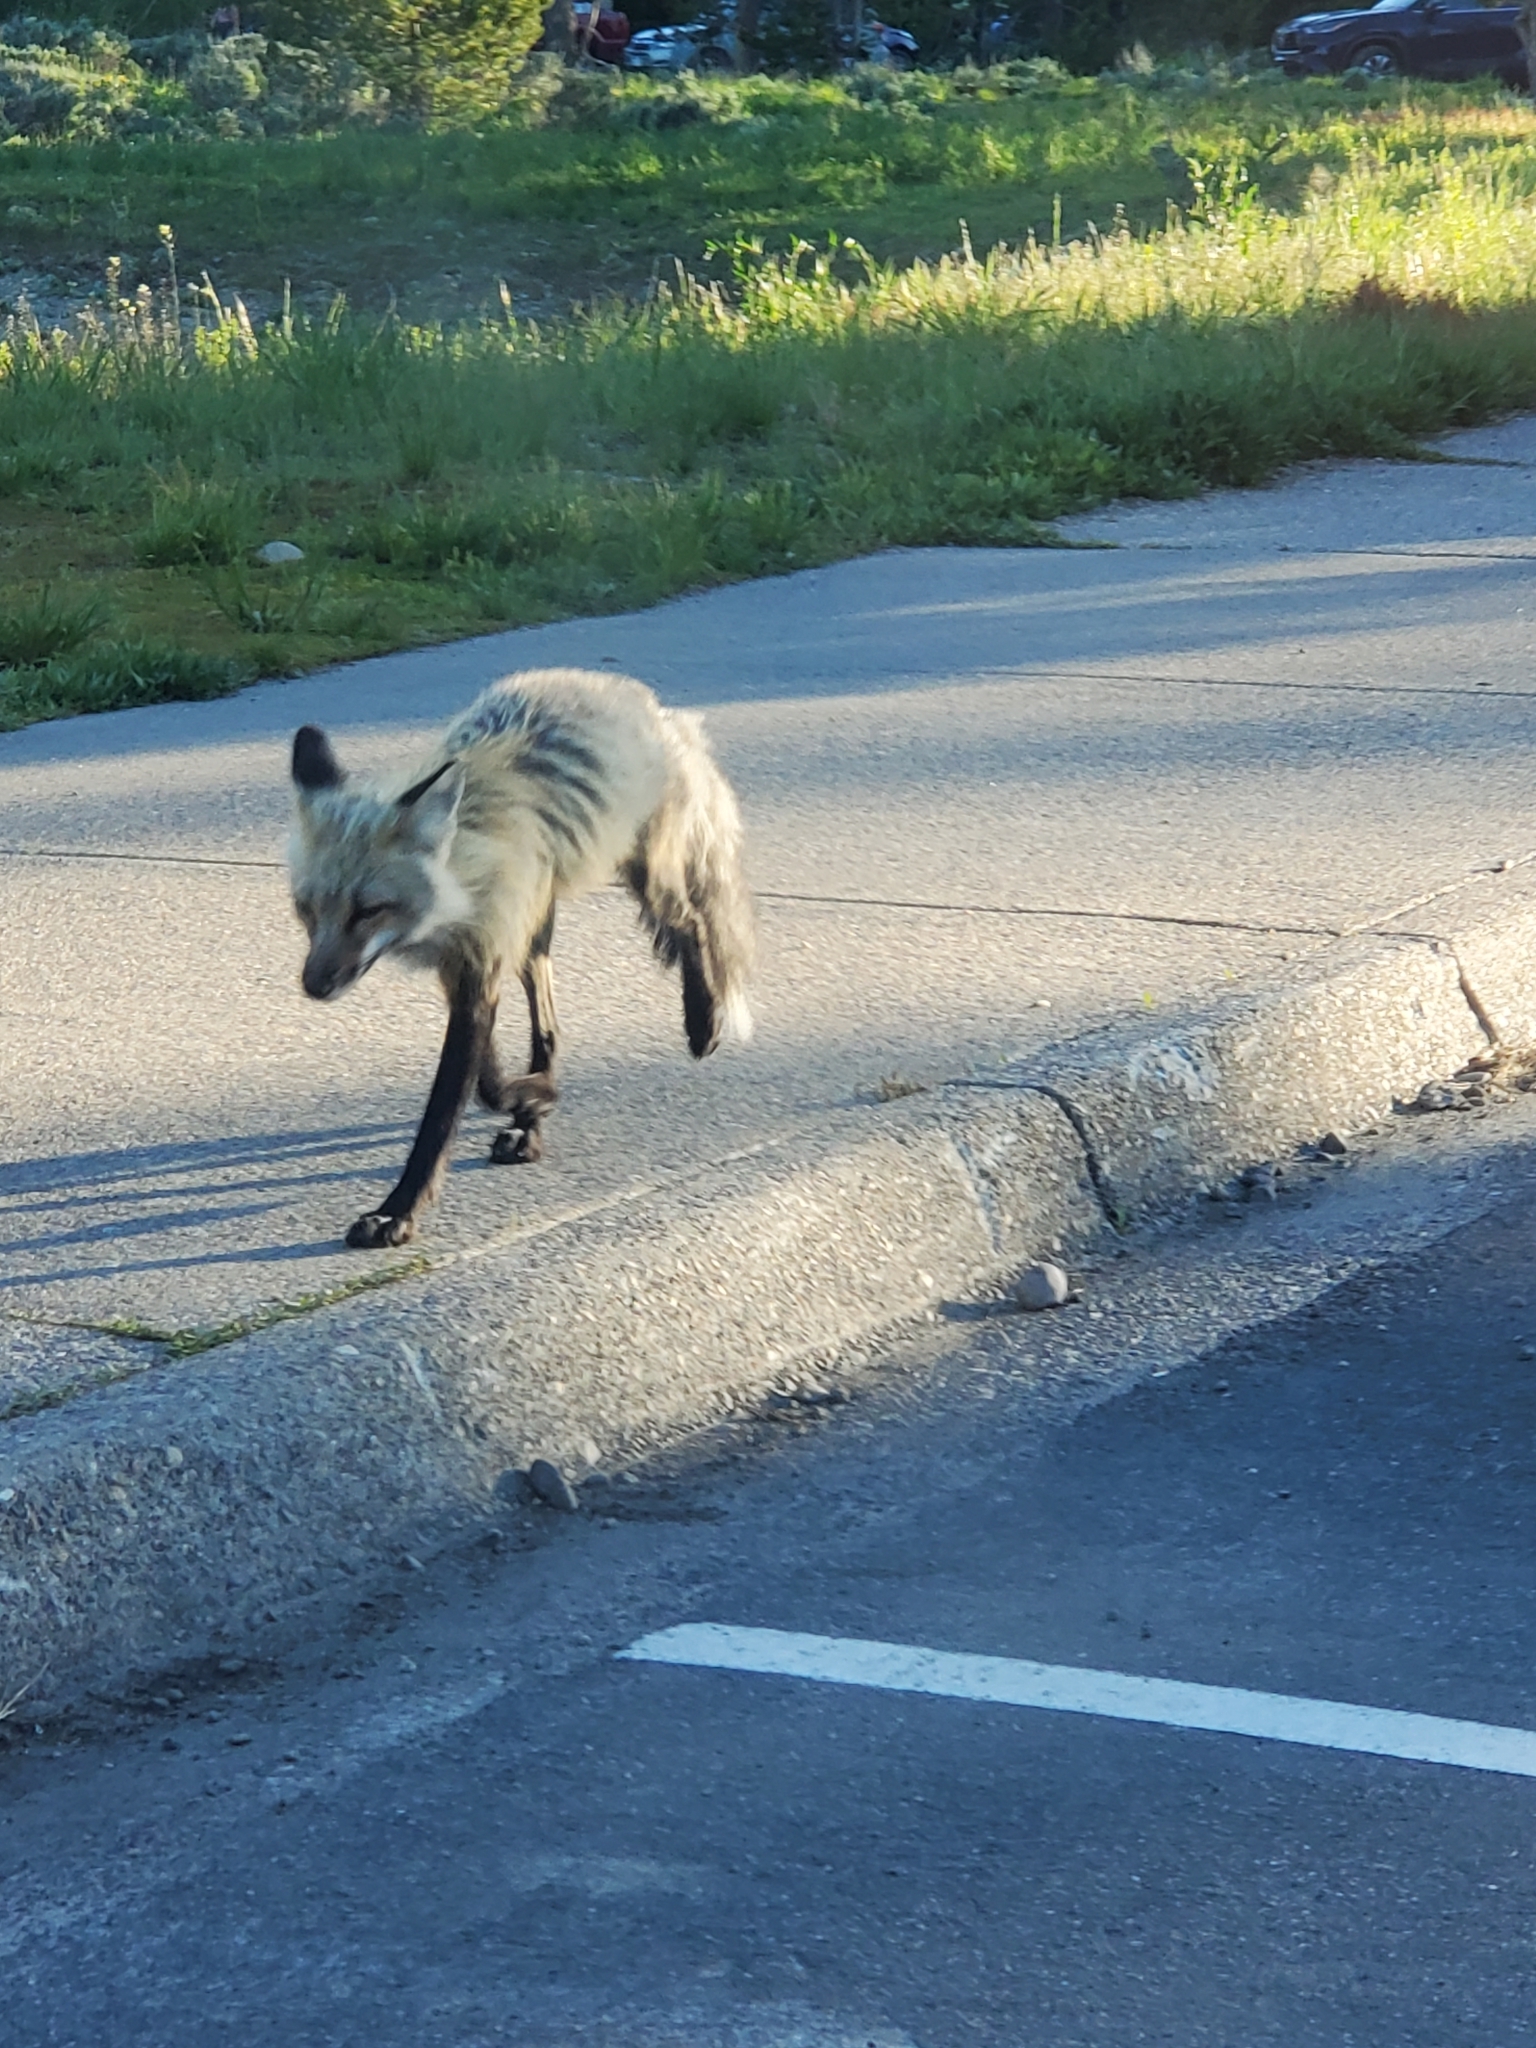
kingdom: Animalia
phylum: Chordata
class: Mammalia
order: Carnivora
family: Canidae
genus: Vulpes
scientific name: Vulpes vulpes
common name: Red fox
